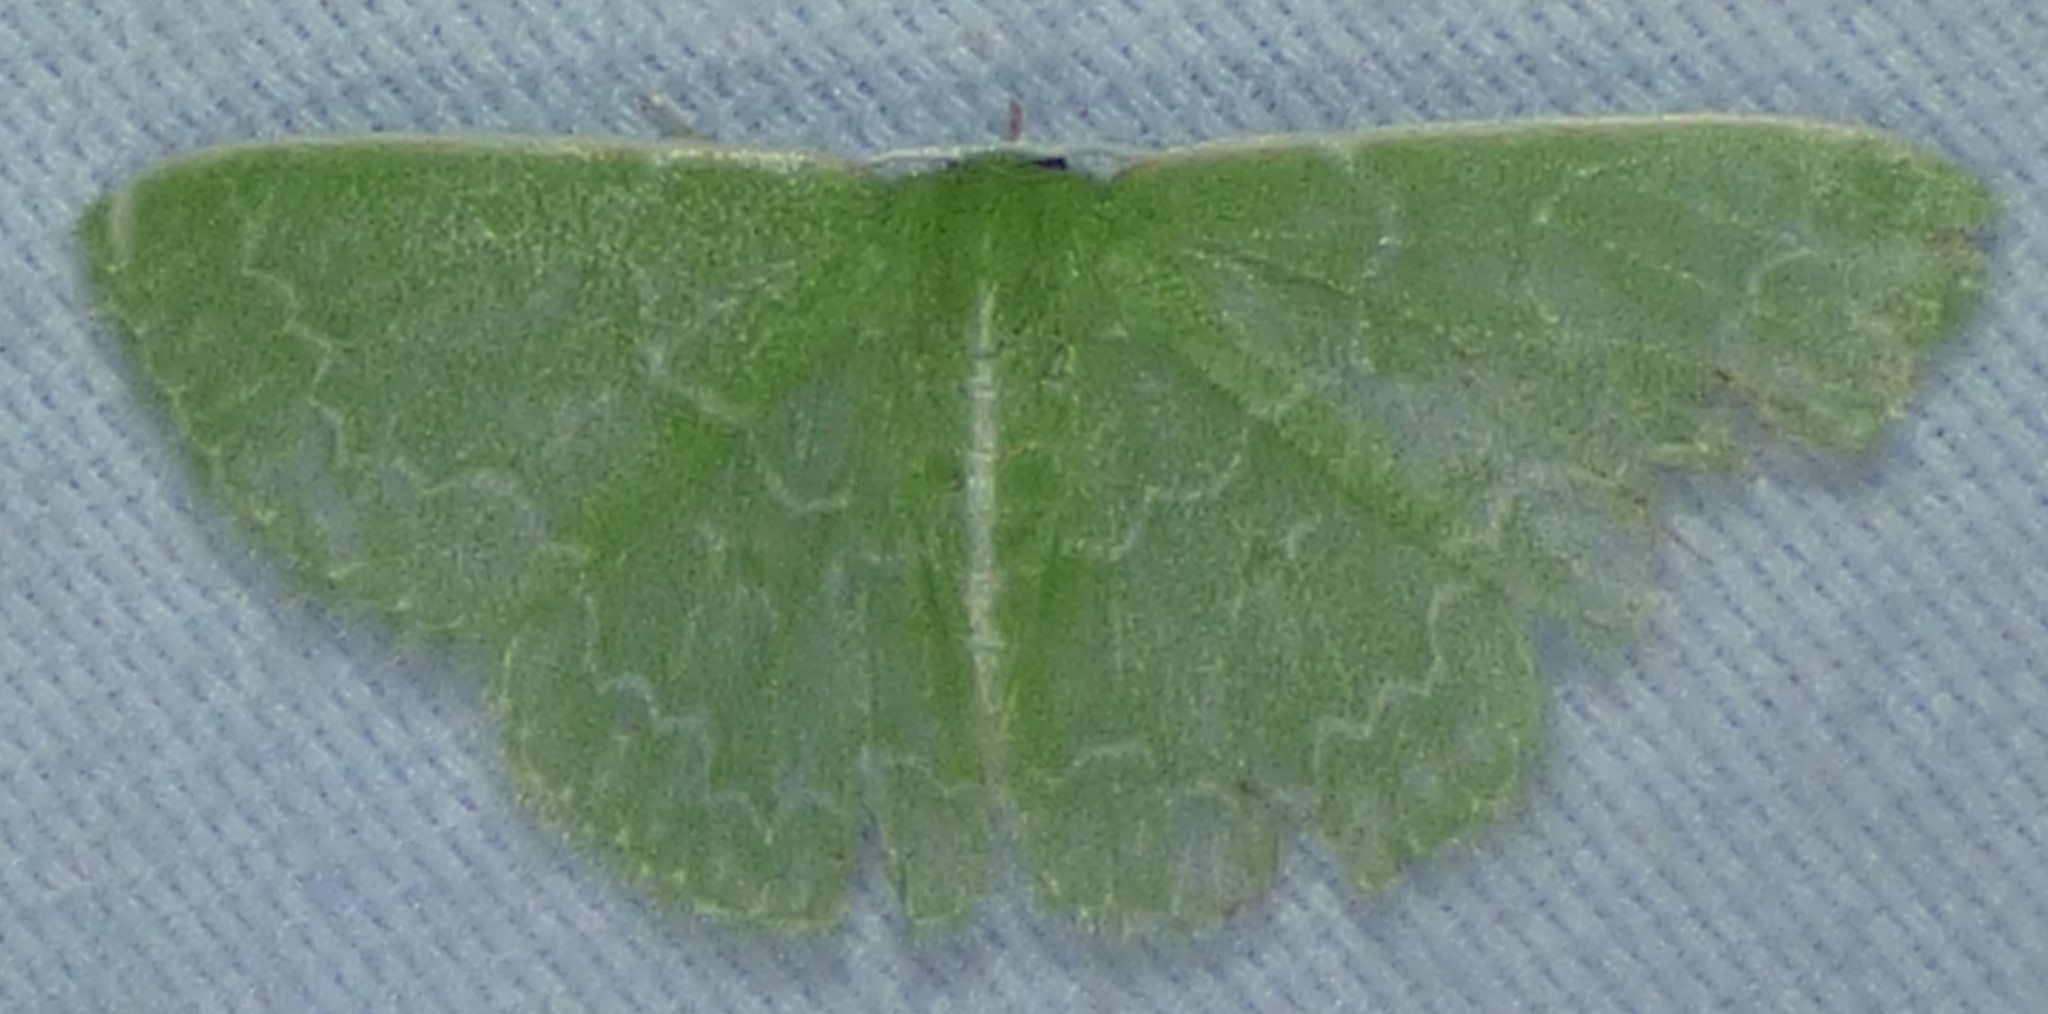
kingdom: Animalia
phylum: Arthropoda
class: Insecta
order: Lepidoptera
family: Geometridae
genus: Synchlora
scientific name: Synchlora frondaria
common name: Southern emerald
